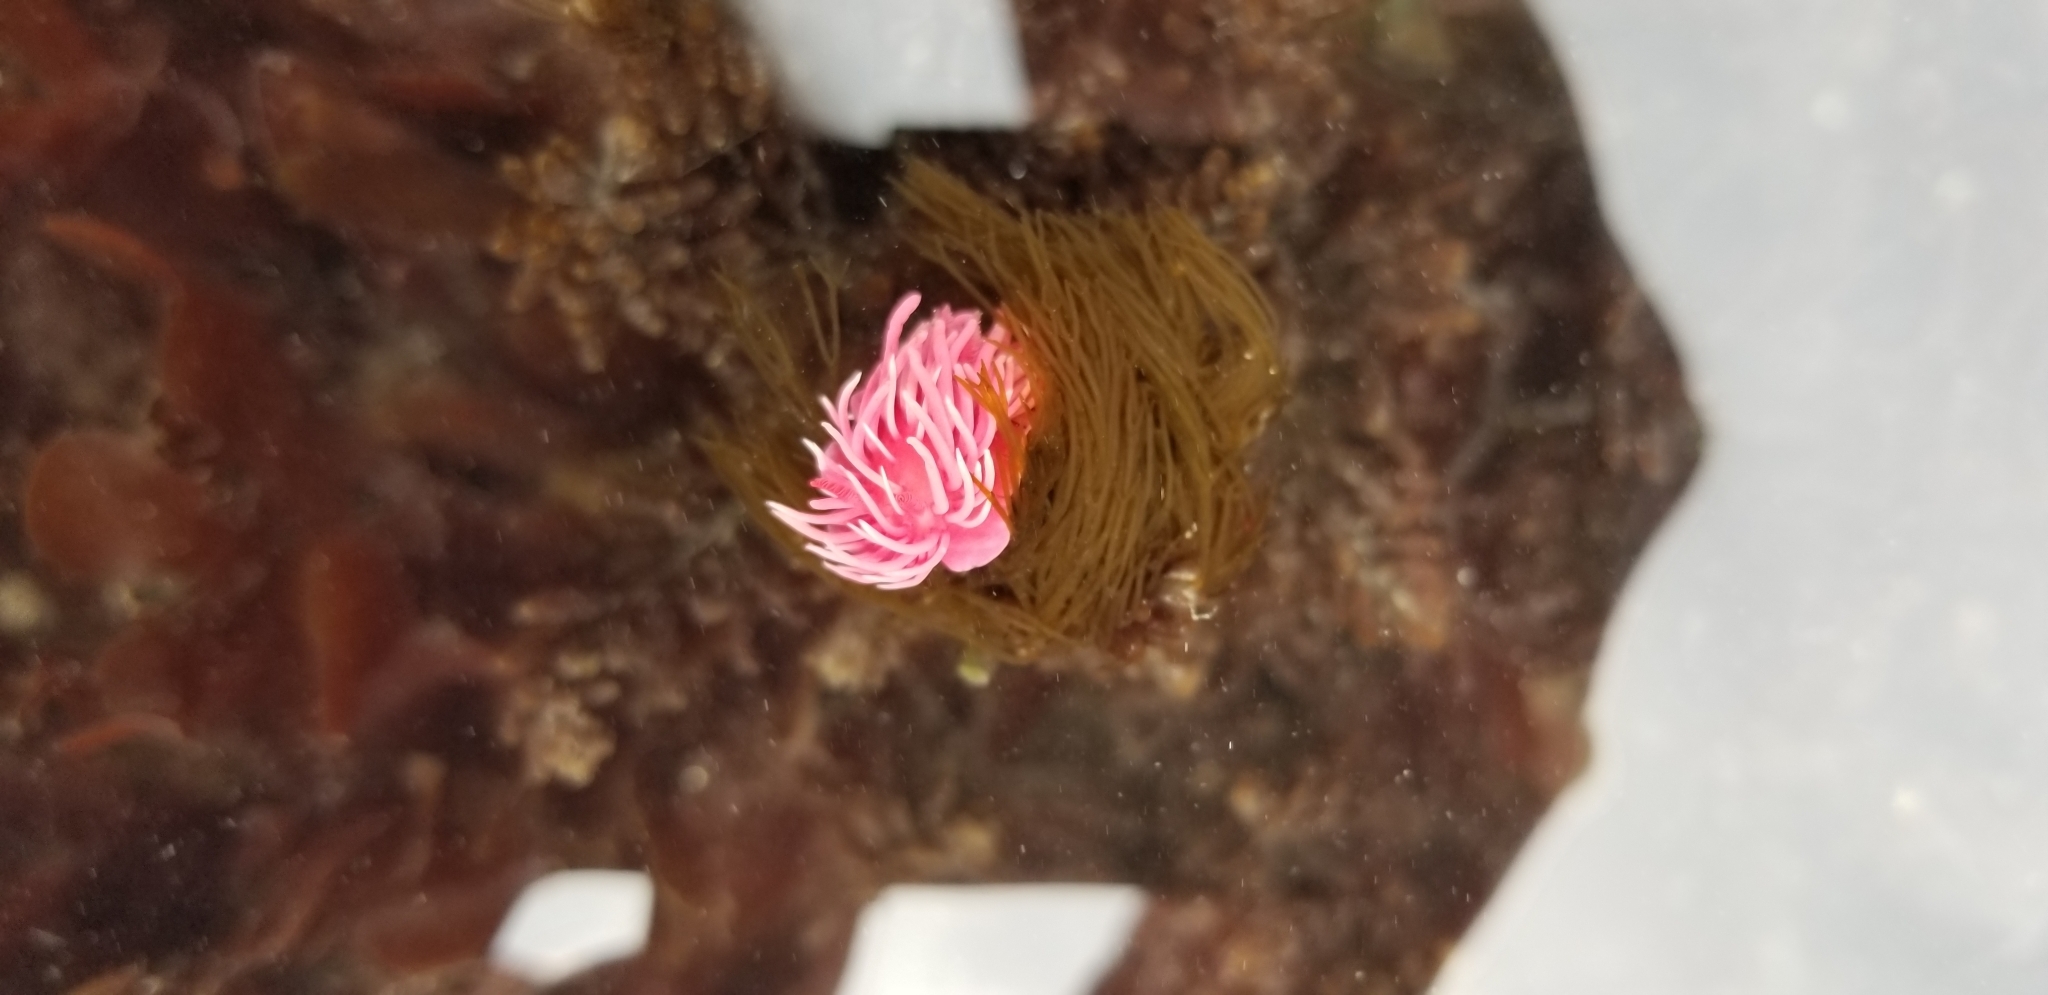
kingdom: Animalia
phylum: Mollusca
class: Gastropoda
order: Nudibranchia
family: Goniodorididae
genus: Okenia
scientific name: Okenia
